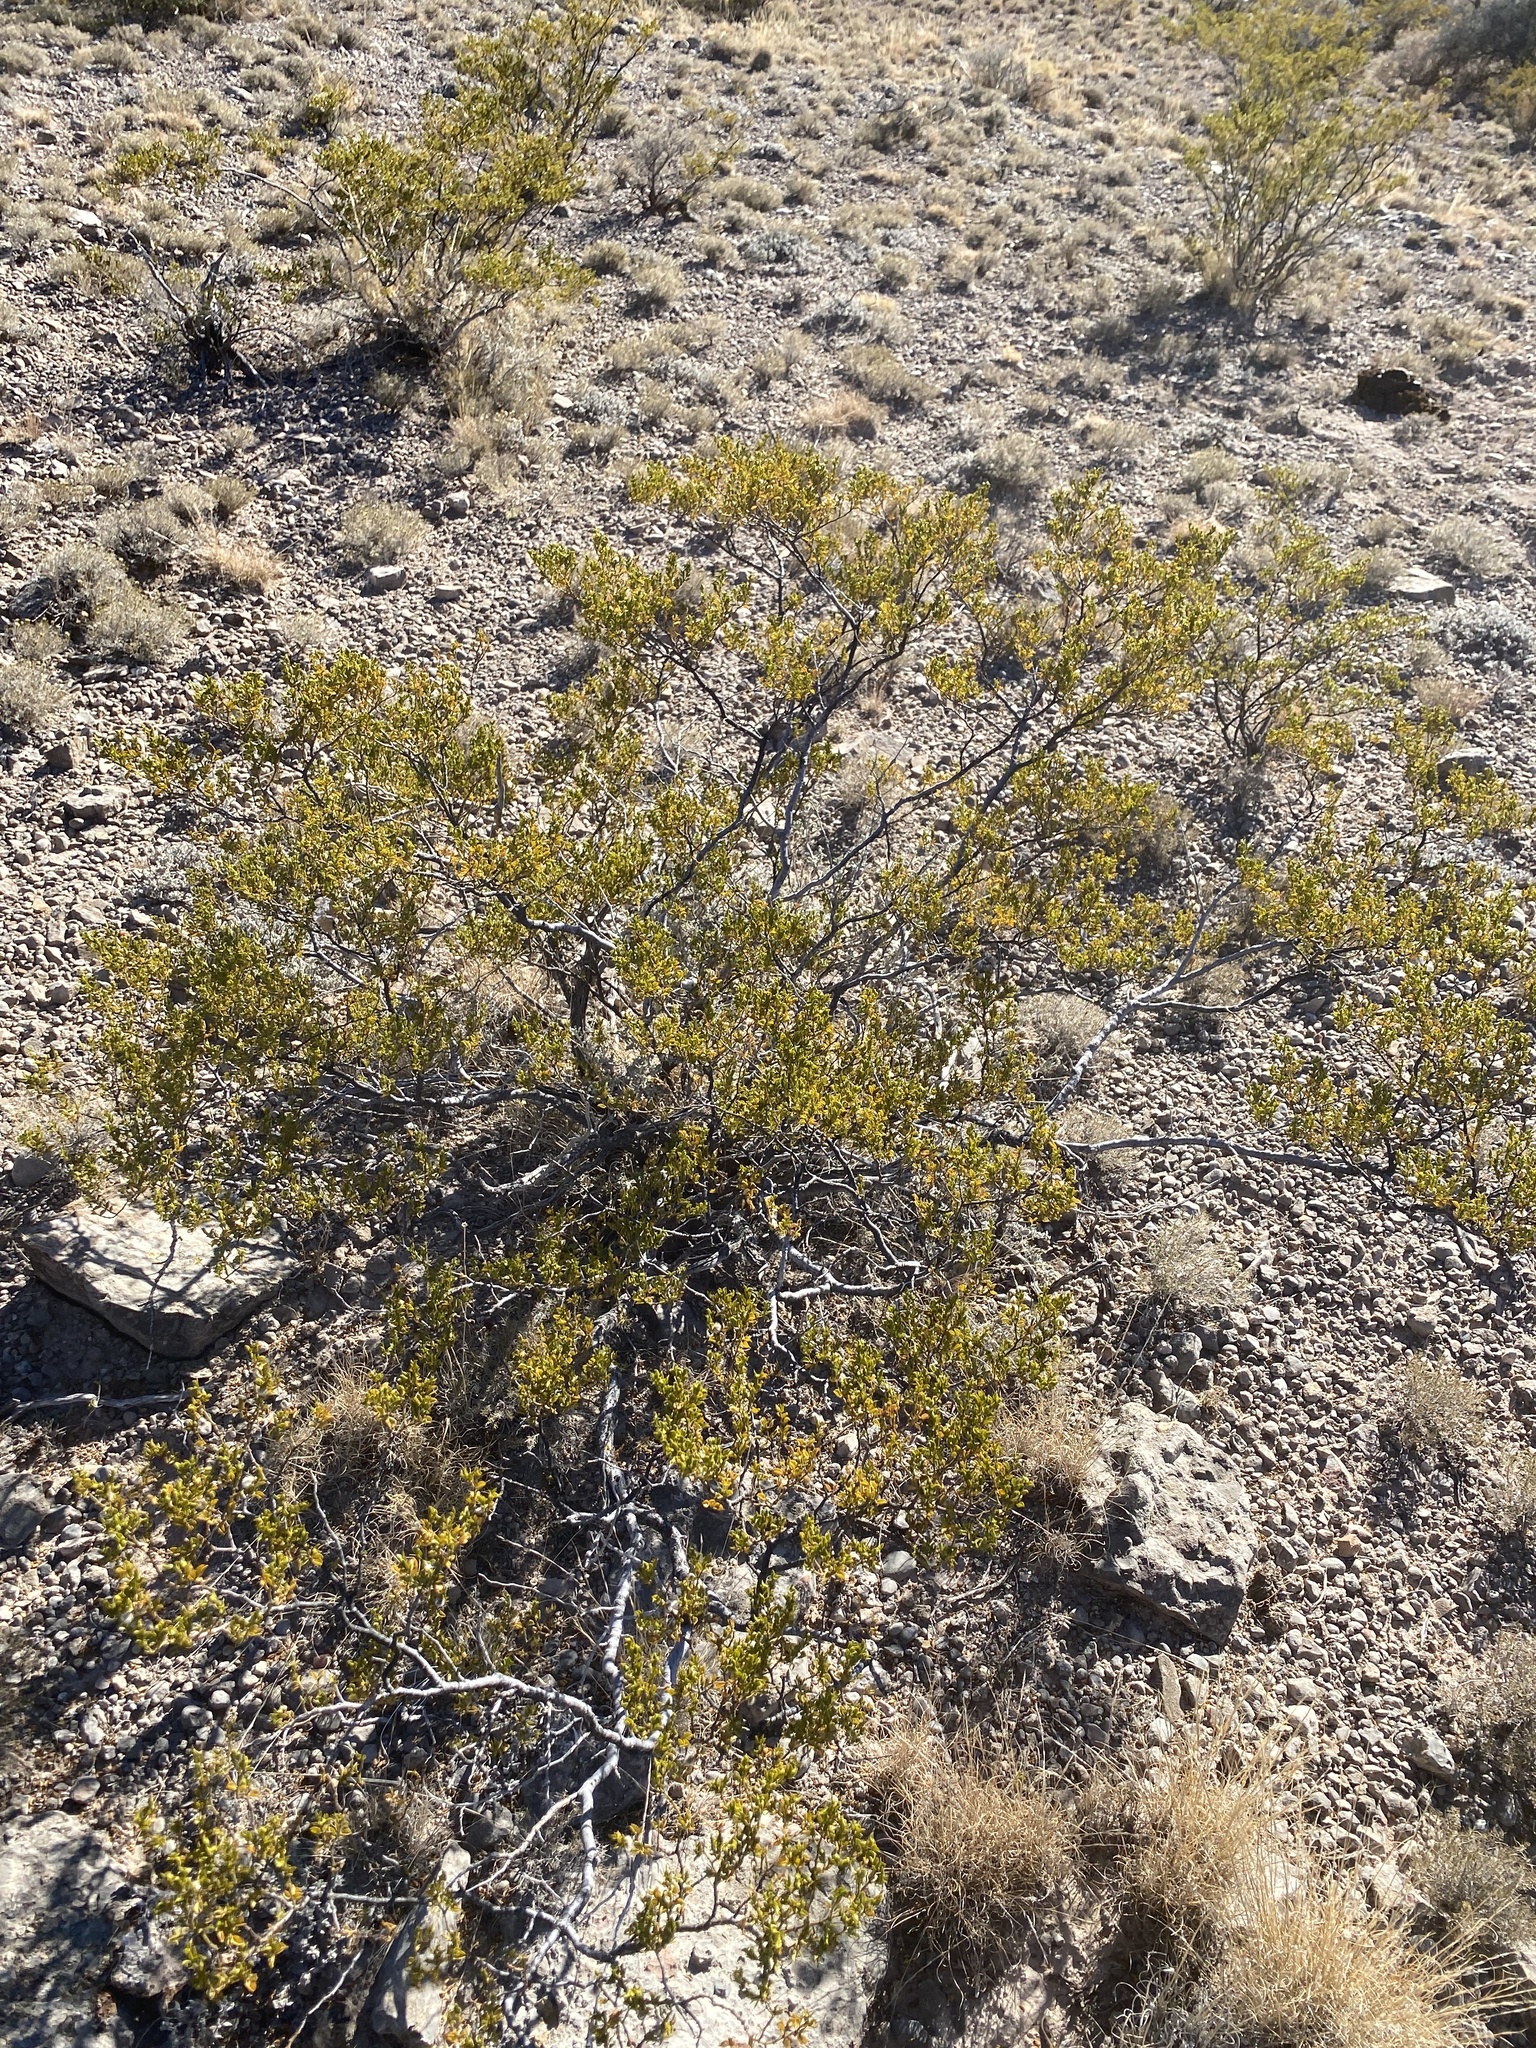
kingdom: Plantae
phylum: Tracheophyta
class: Magnoliopsida
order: Zygophyllales
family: Zygophyllaceae
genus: Larrea
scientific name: Larrea tridentata
